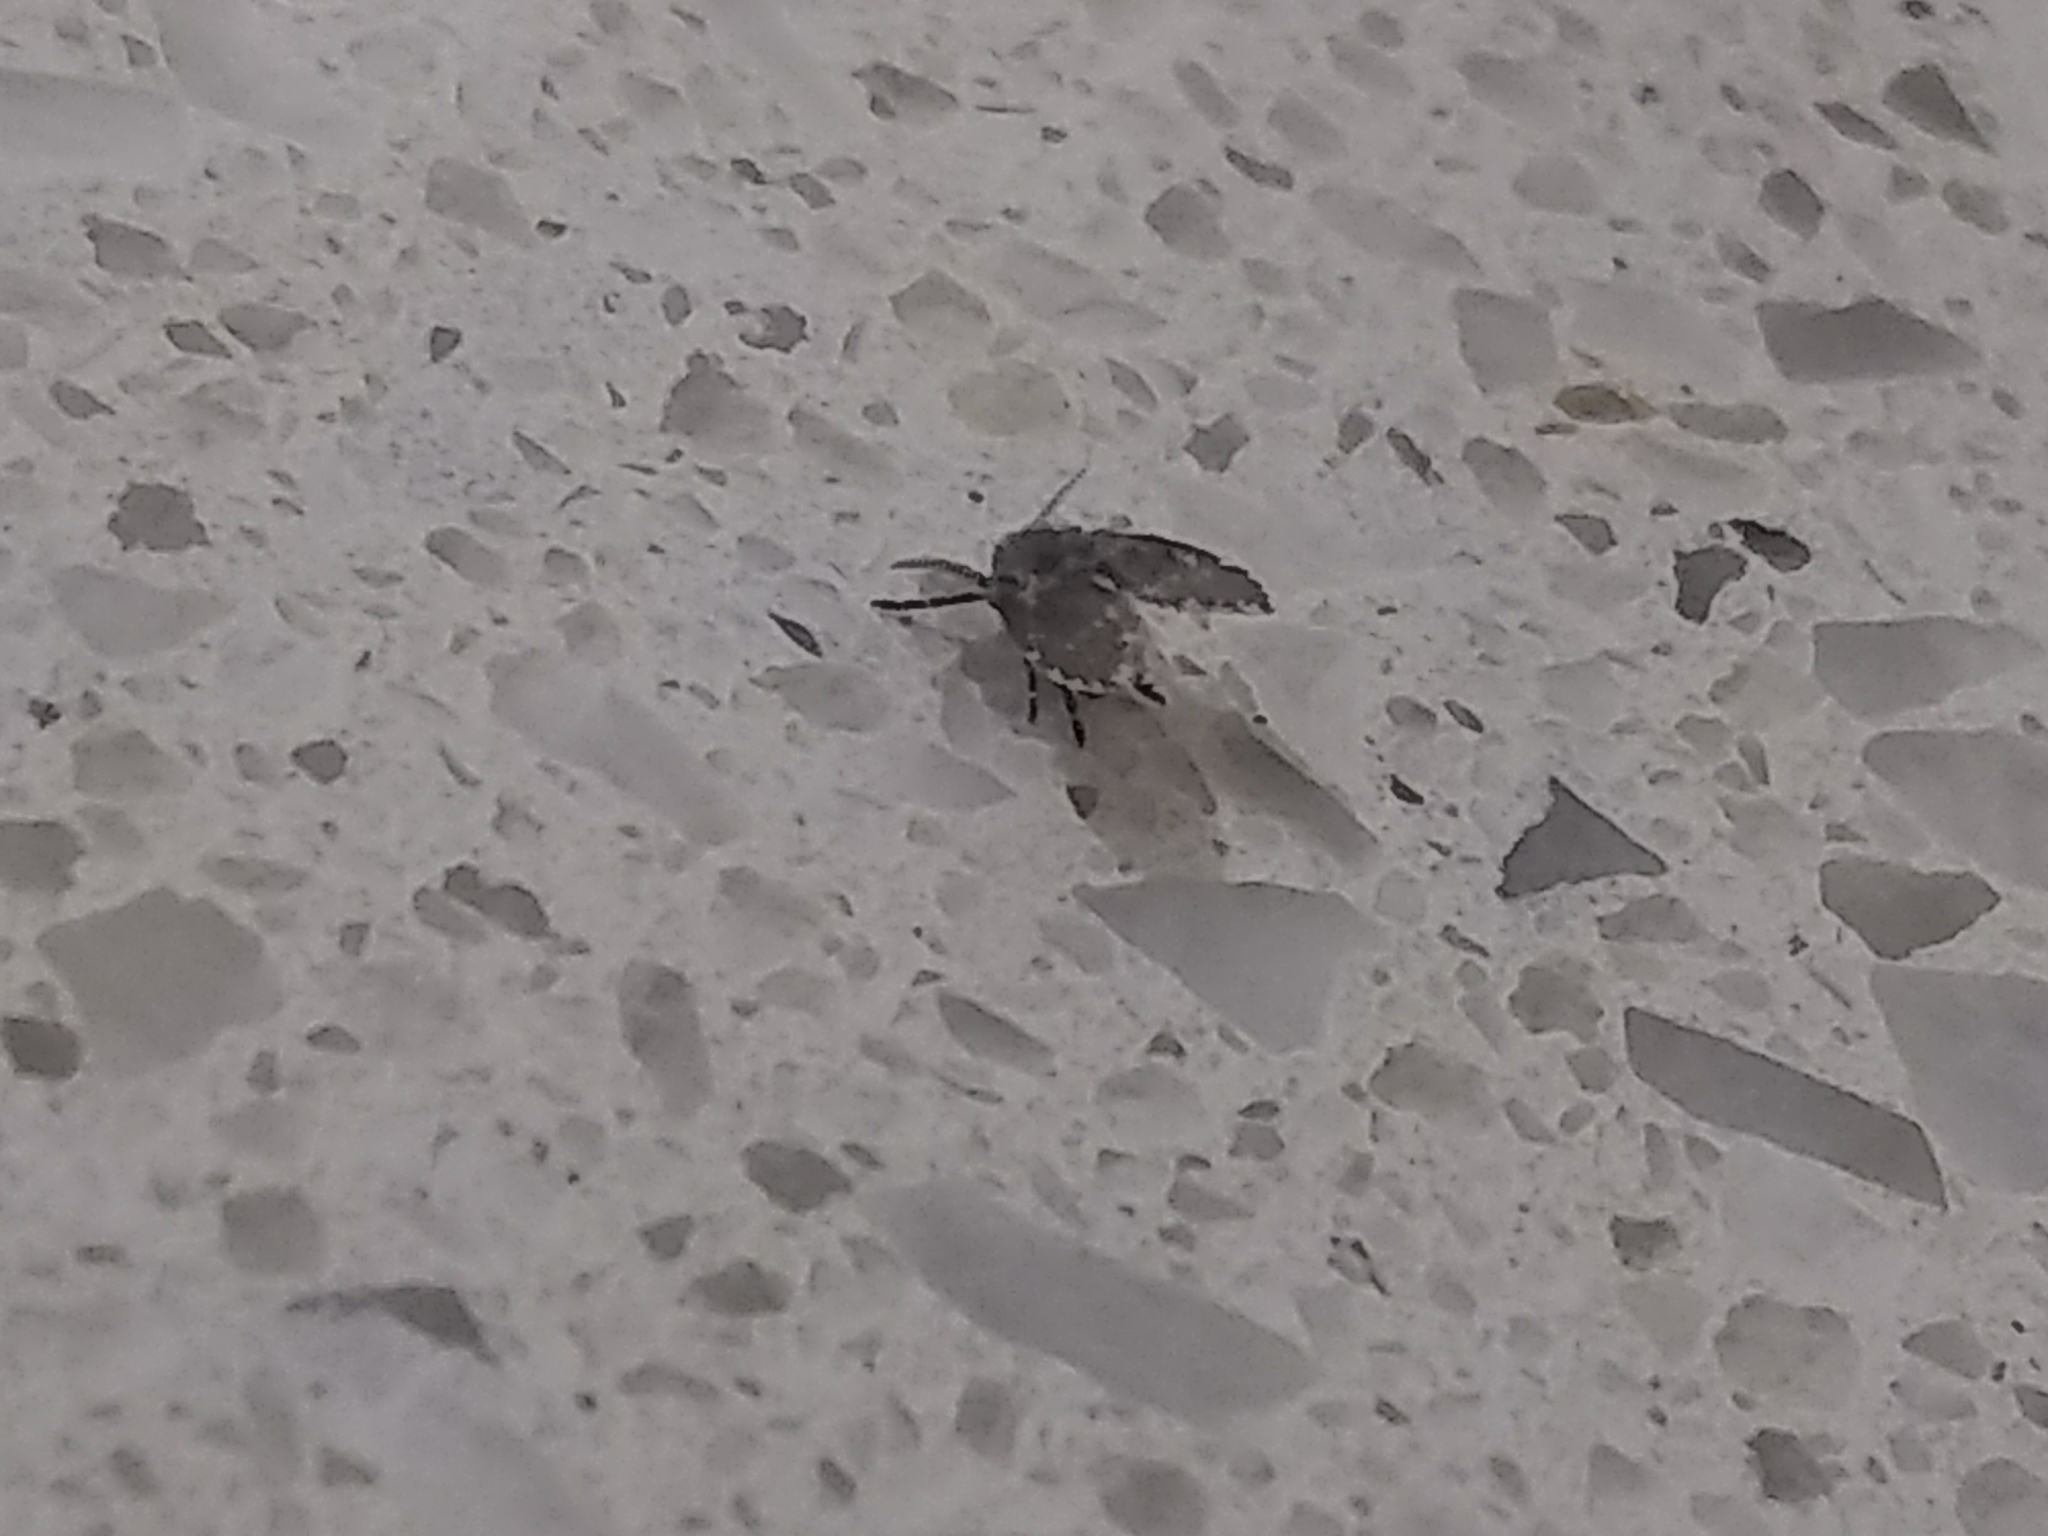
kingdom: Animalia
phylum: Arthropoda
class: Insecta
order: Diptera
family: Psychodidae
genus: Clogmia
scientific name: Clogmia albipunctatus
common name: White-spotted moth fly
